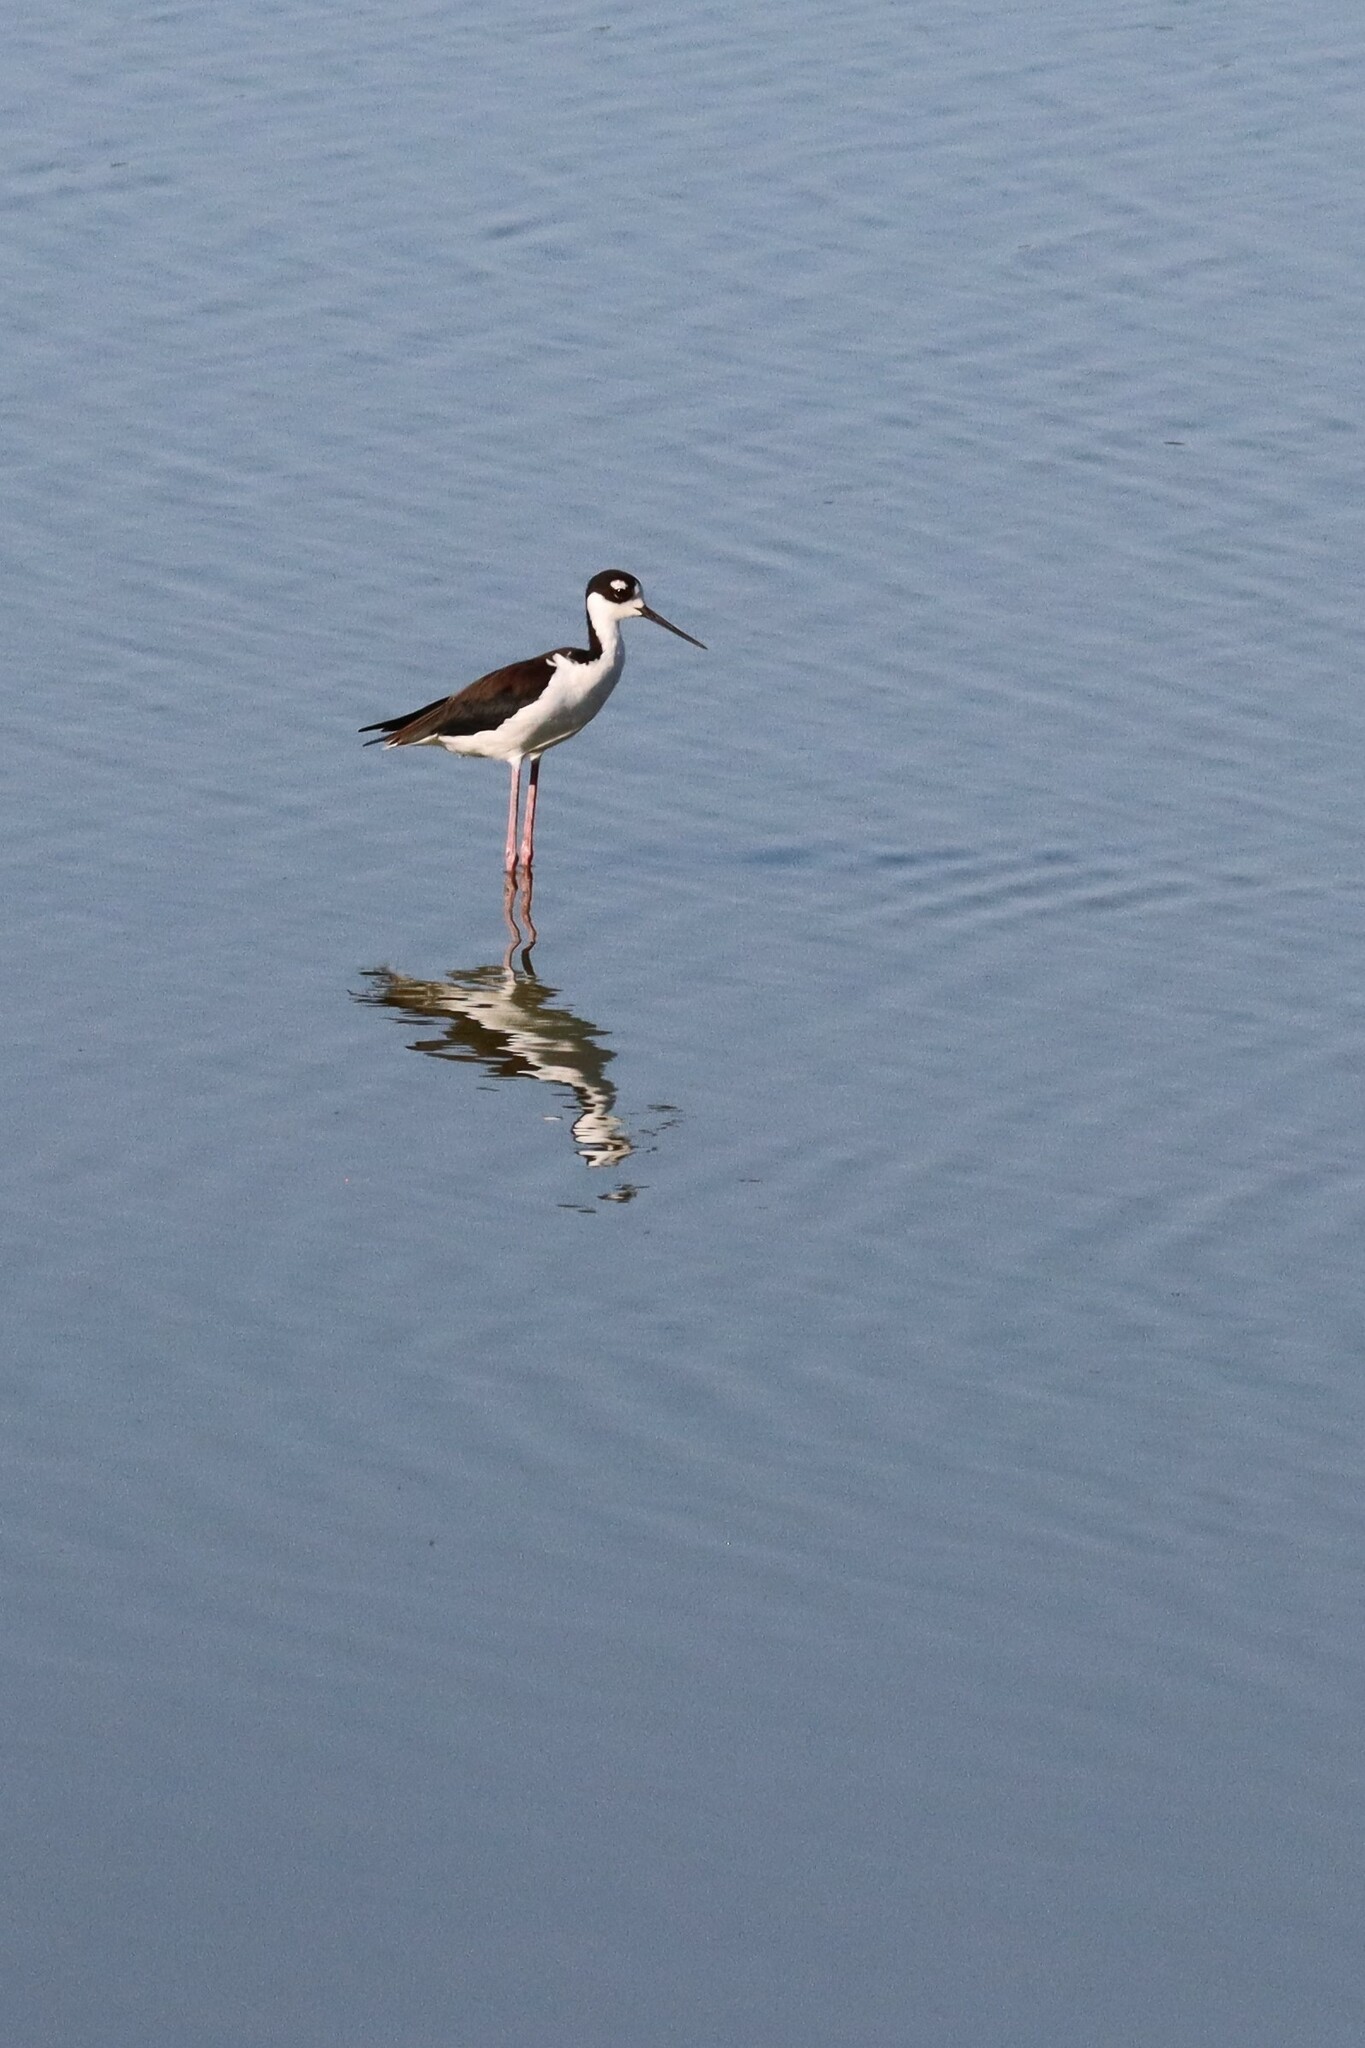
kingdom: Animalia
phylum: Chordata
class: Aves
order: Charadriiformes
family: Recurvirostridae
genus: Himantopus
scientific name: Himantopus mexicanus
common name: Black-necked stilt
